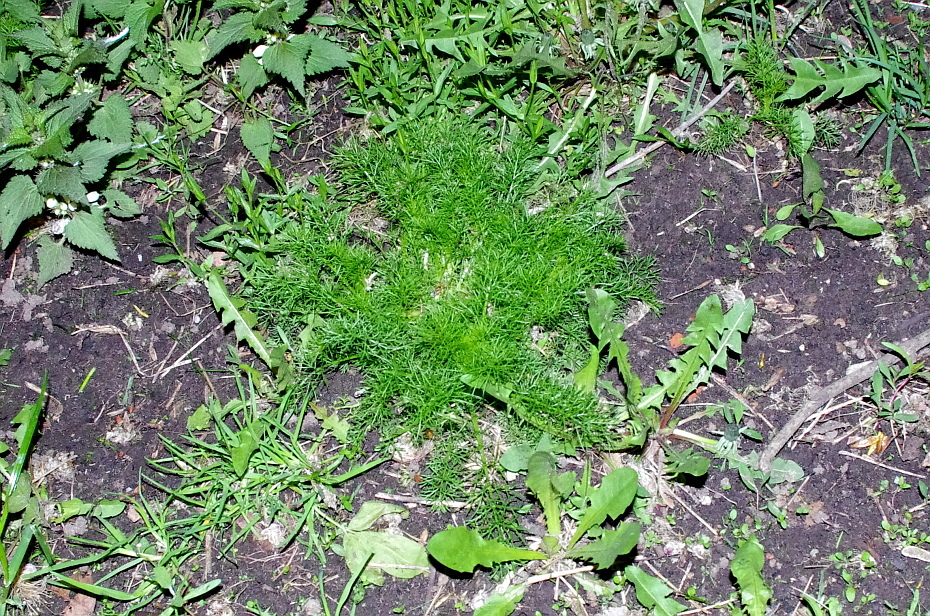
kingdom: Plantae
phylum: Tracheophyta
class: Magnoliopsida
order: Asterales
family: Asteraceae
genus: Tripleurospermum
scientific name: Tripleurospermum inodorum
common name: Scentless mayweed
